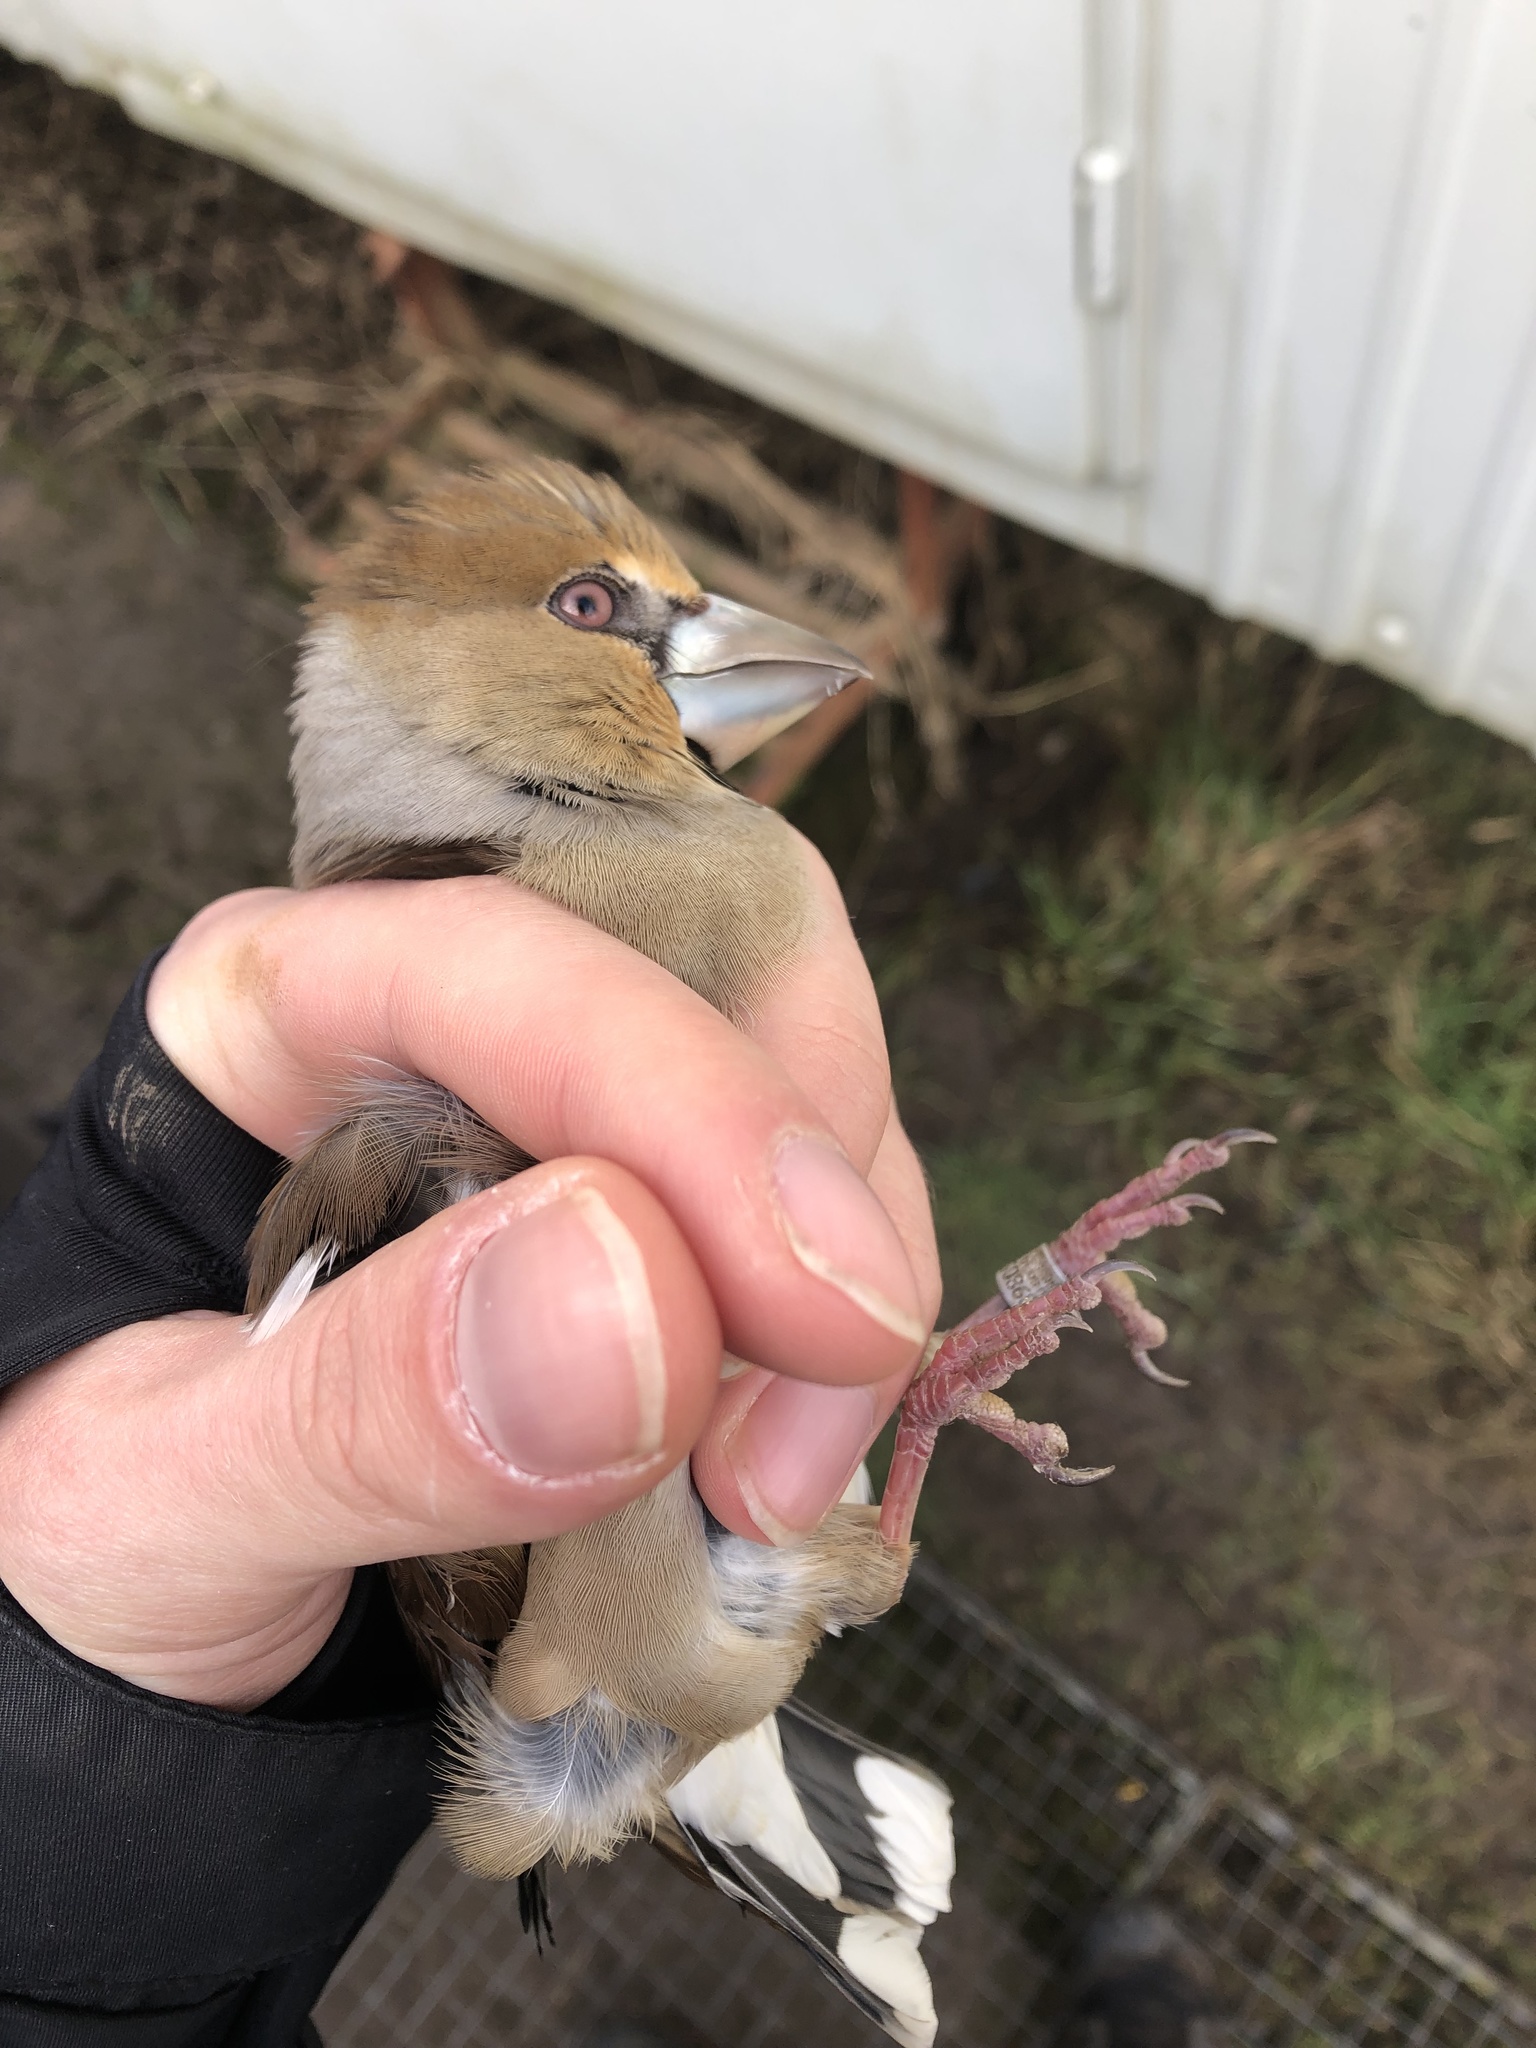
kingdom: Animalia
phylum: Chordata
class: Aves
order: Passeriformes
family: Fringillidae
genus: Coccothraustes
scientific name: Coccothraustes coccothraustes
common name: Hawfinch
